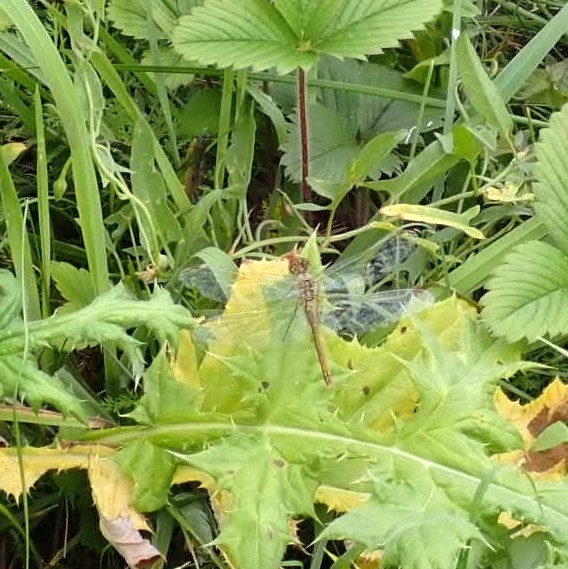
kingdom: Animalia
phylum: Arthropoda
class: Insecta
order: Odonata
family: Libellulidae
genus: Sympetrum
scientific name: Sympetrum flaveolum
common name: Yellow-winged darter
